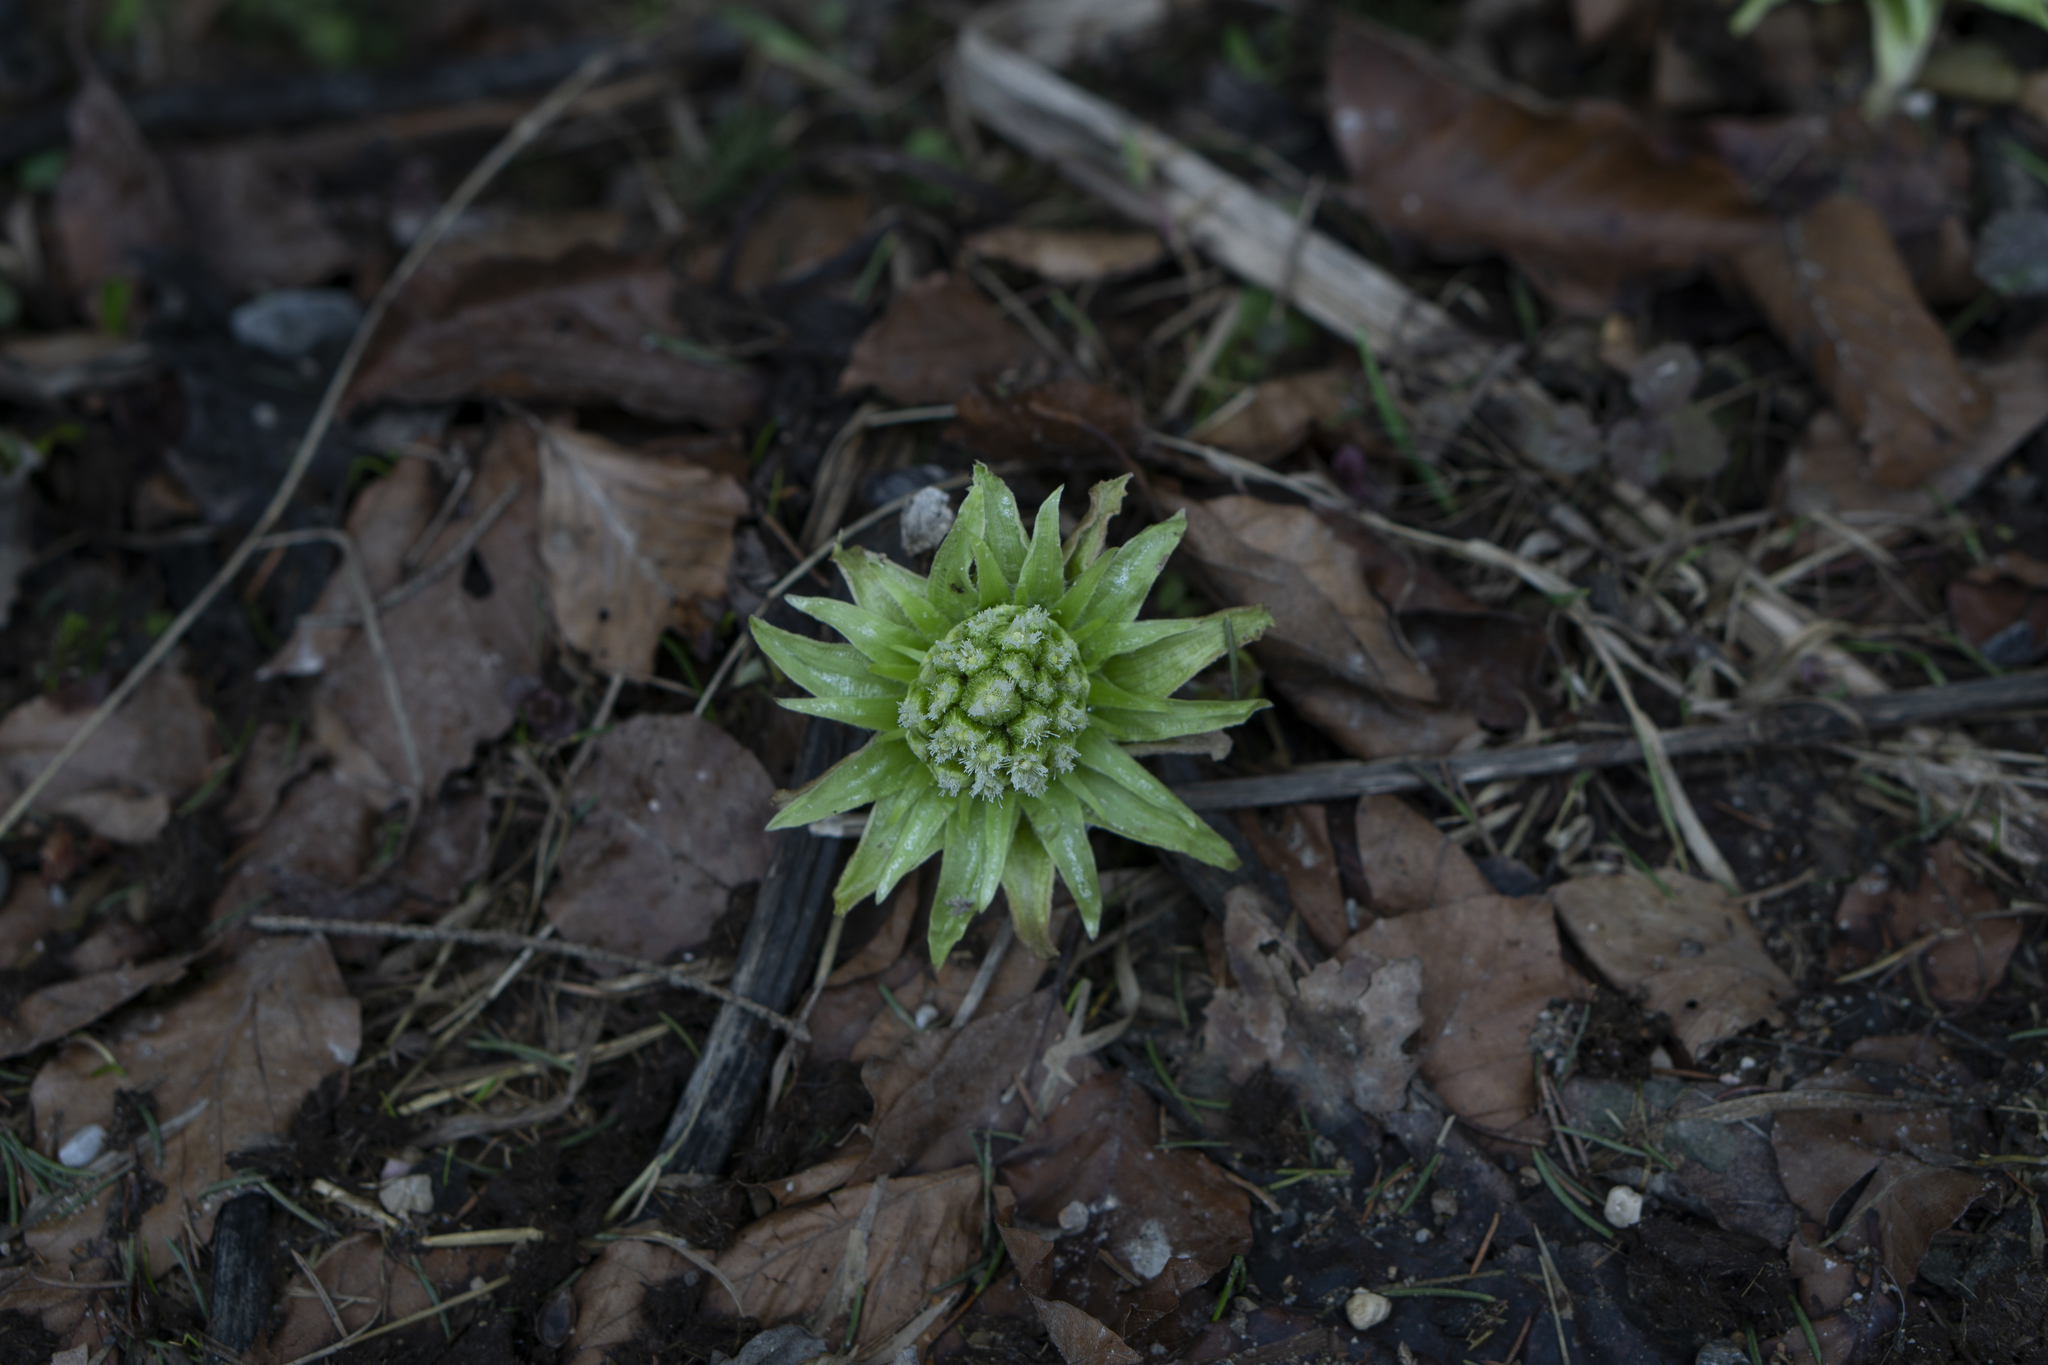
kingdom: Plantae
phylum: Tracheophyta
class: Magnoliopsida
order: Asterales
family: Asteraceae
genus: Petasites
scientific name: Petasites albus
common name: White butterbur
